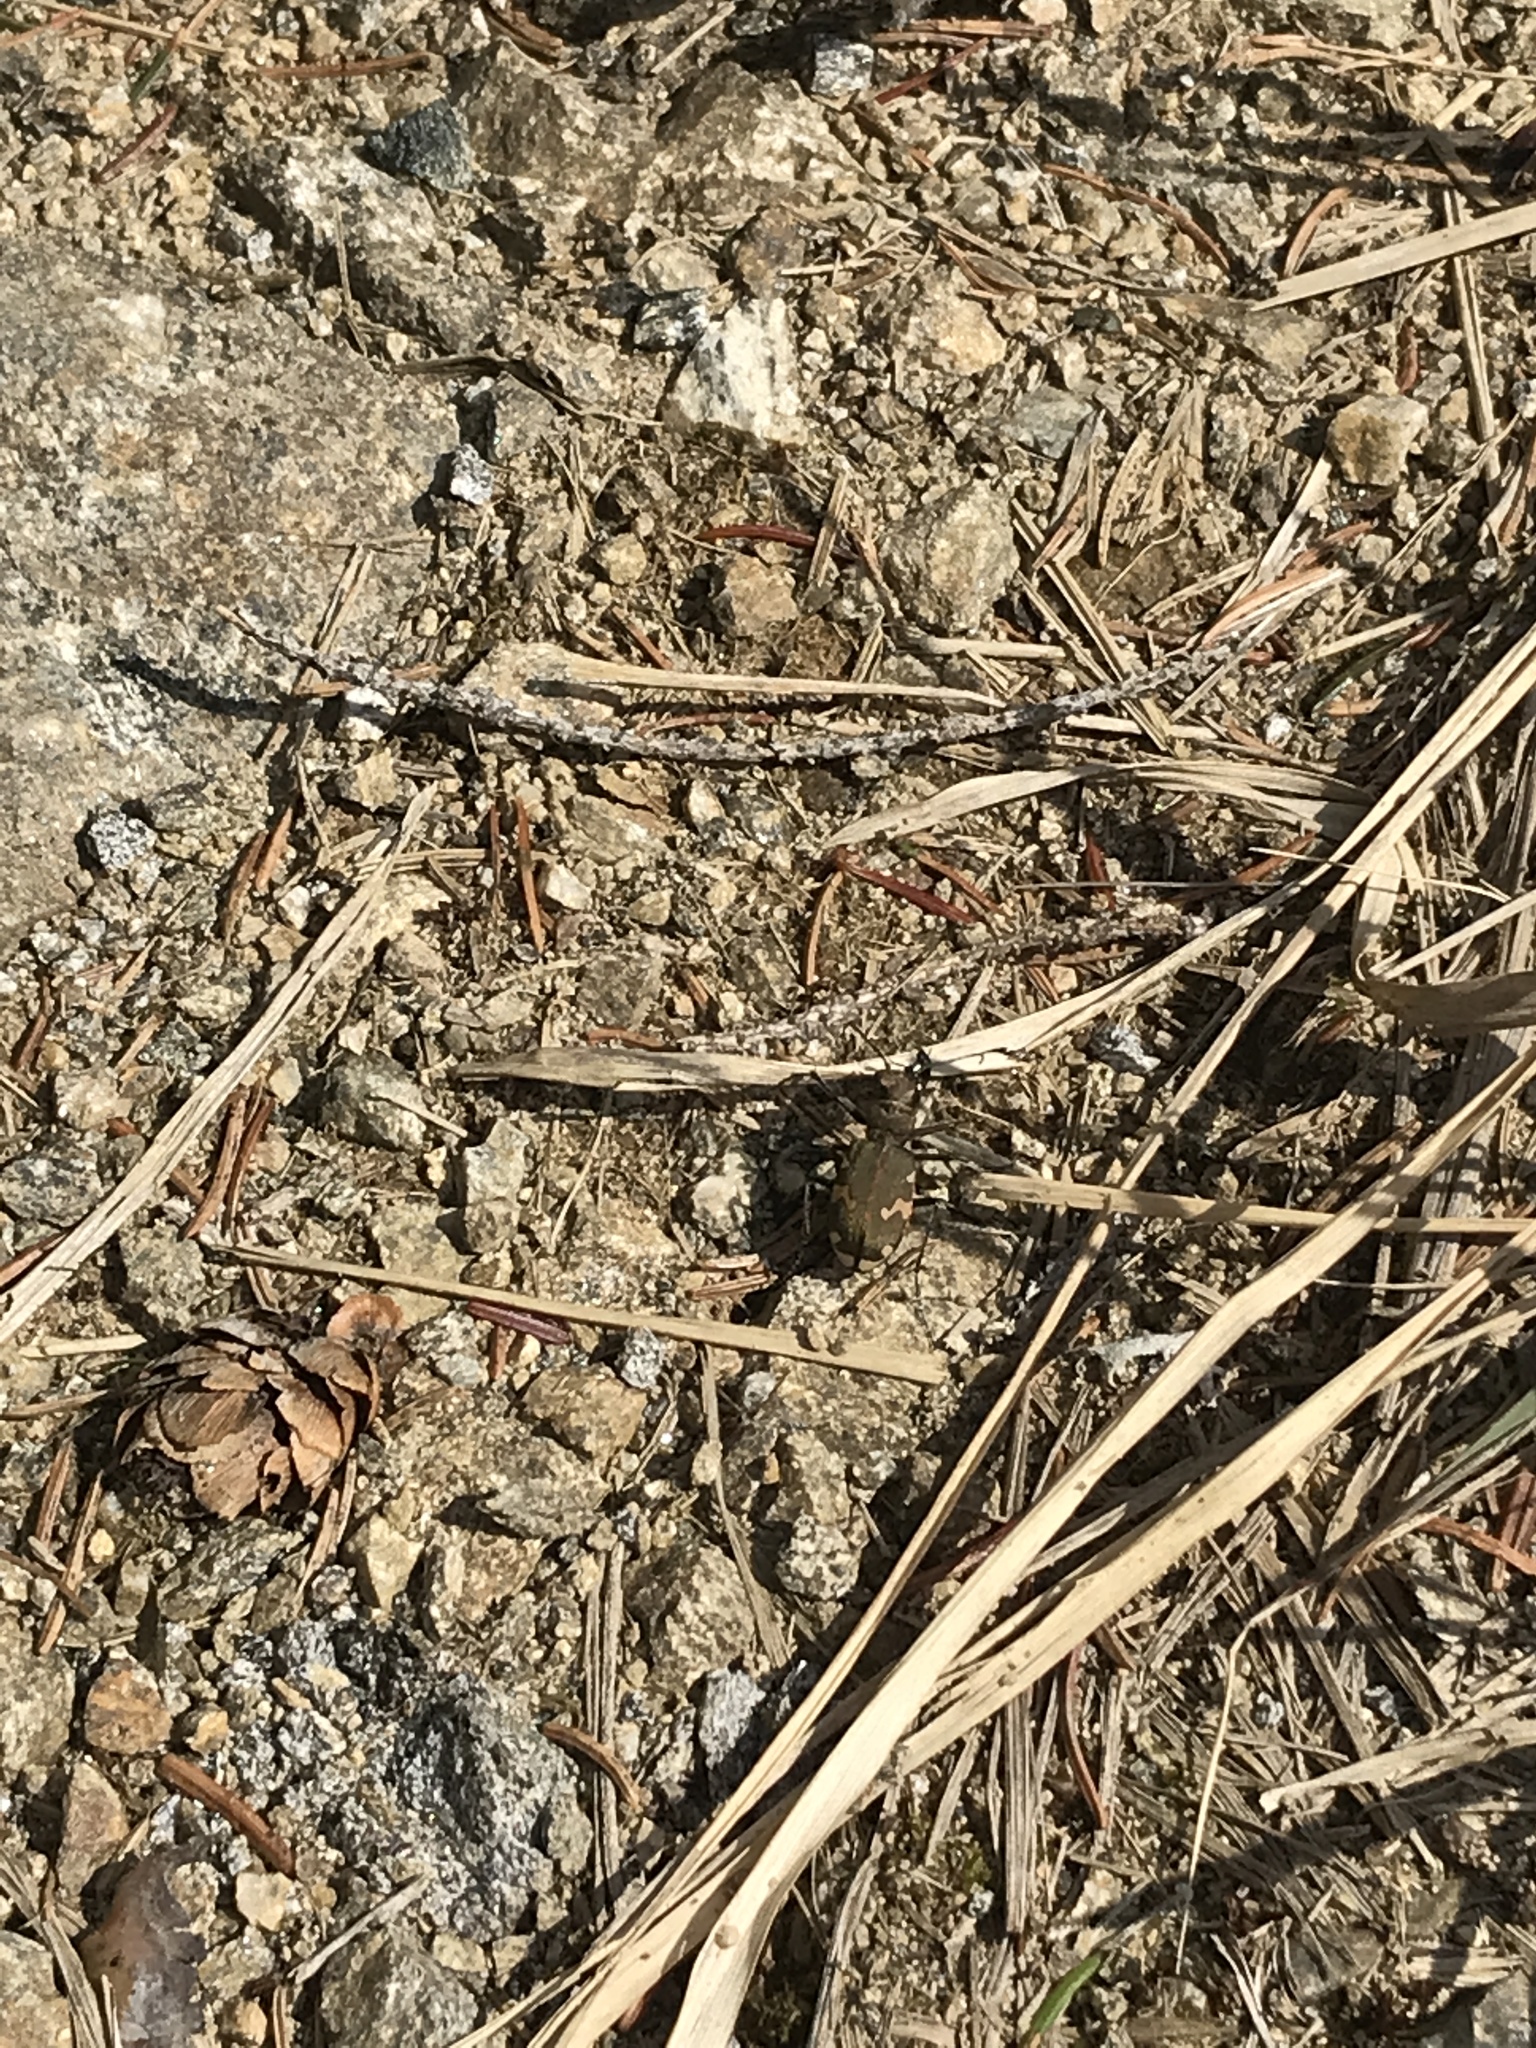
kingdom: Animalia
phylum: Arthropoda
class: Insecta
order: Coleoptera
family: Carabidae
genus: Cicindela
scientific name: Cicindela sylvicola
